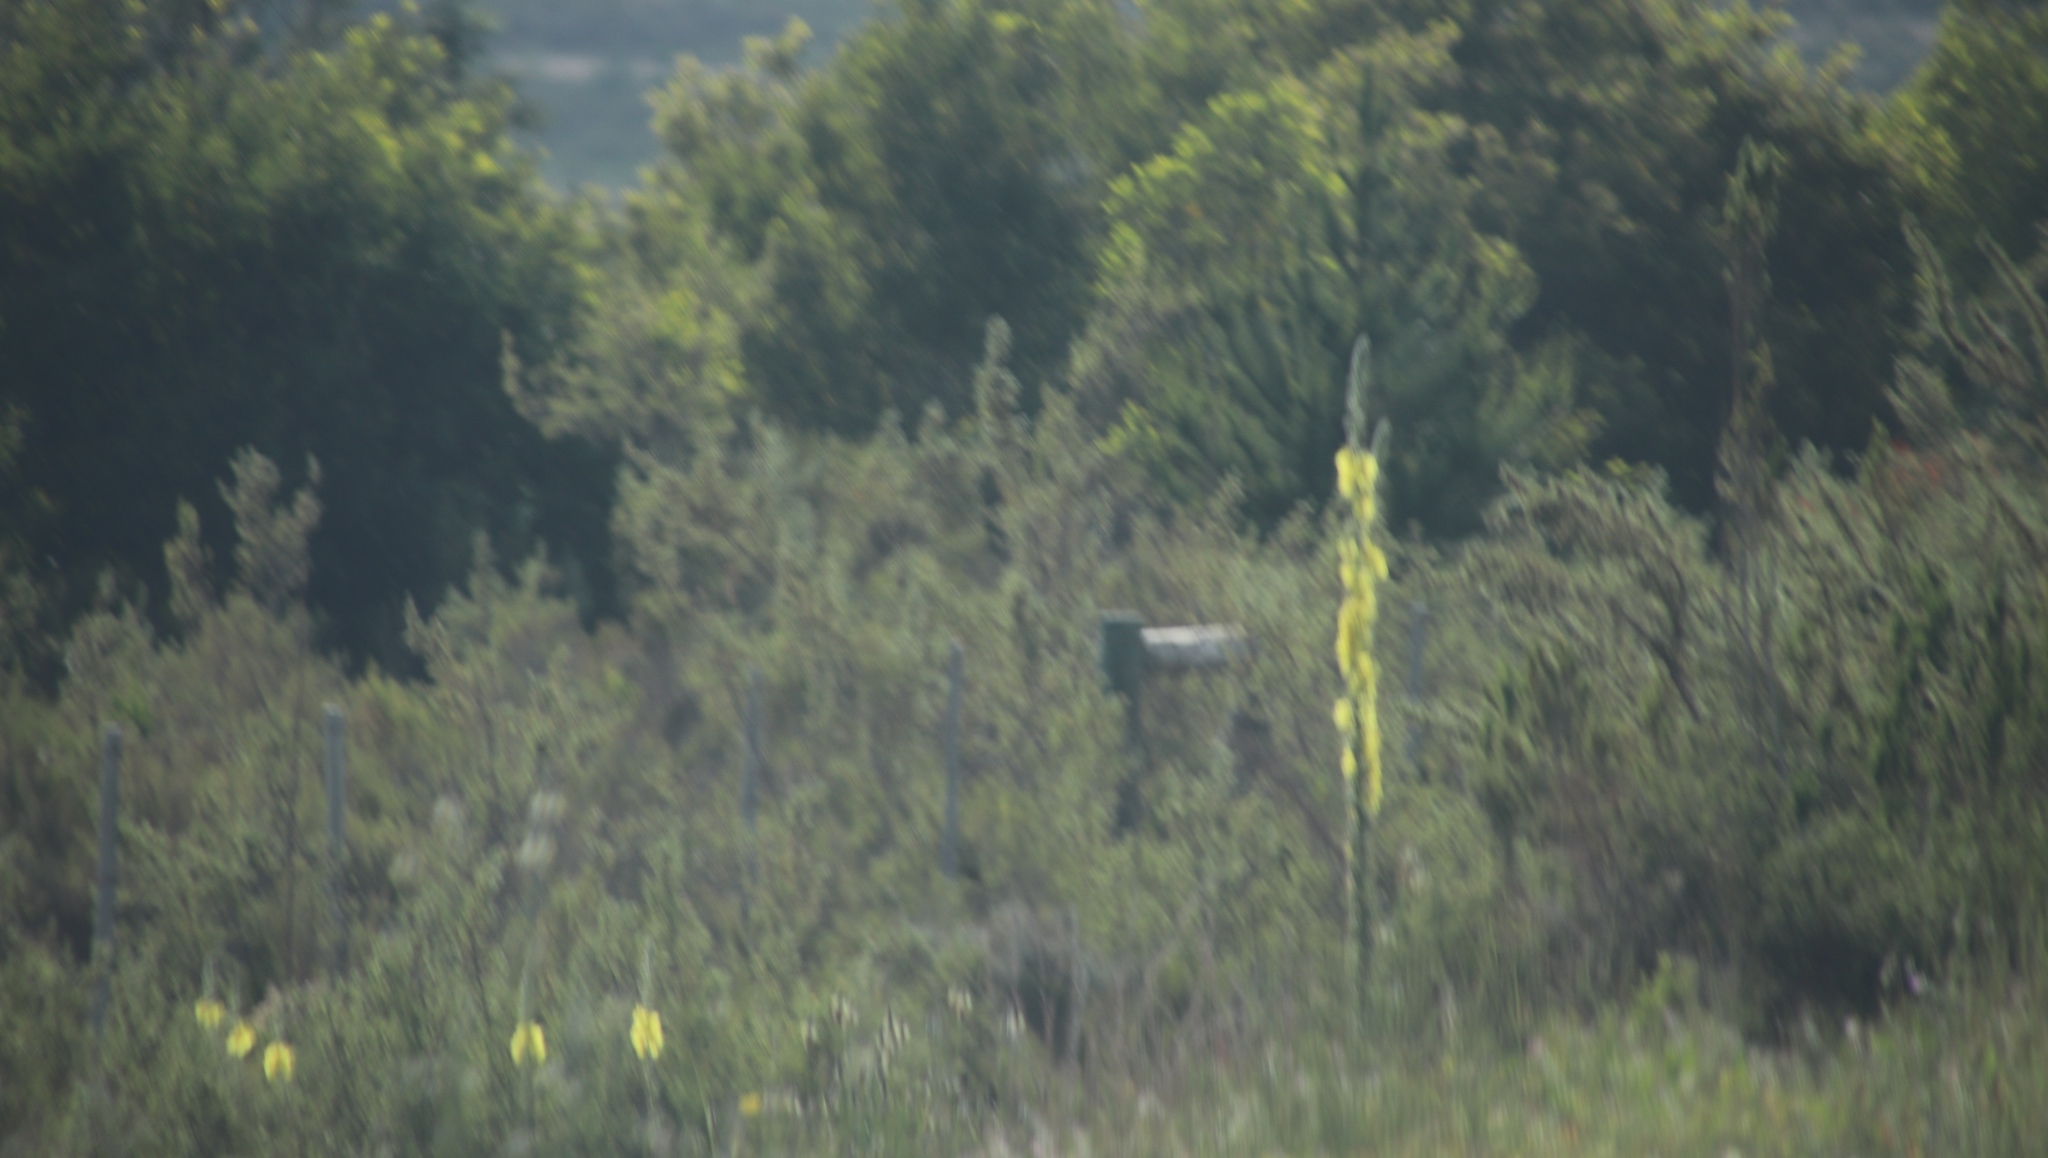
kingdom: Plantae
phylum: Tracheophyta
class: Magnoliopsida
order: Lamiales
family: Scrophulariaceae
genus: Verbascum
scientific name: Verbascum virgatum
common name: Twiggy mullein
